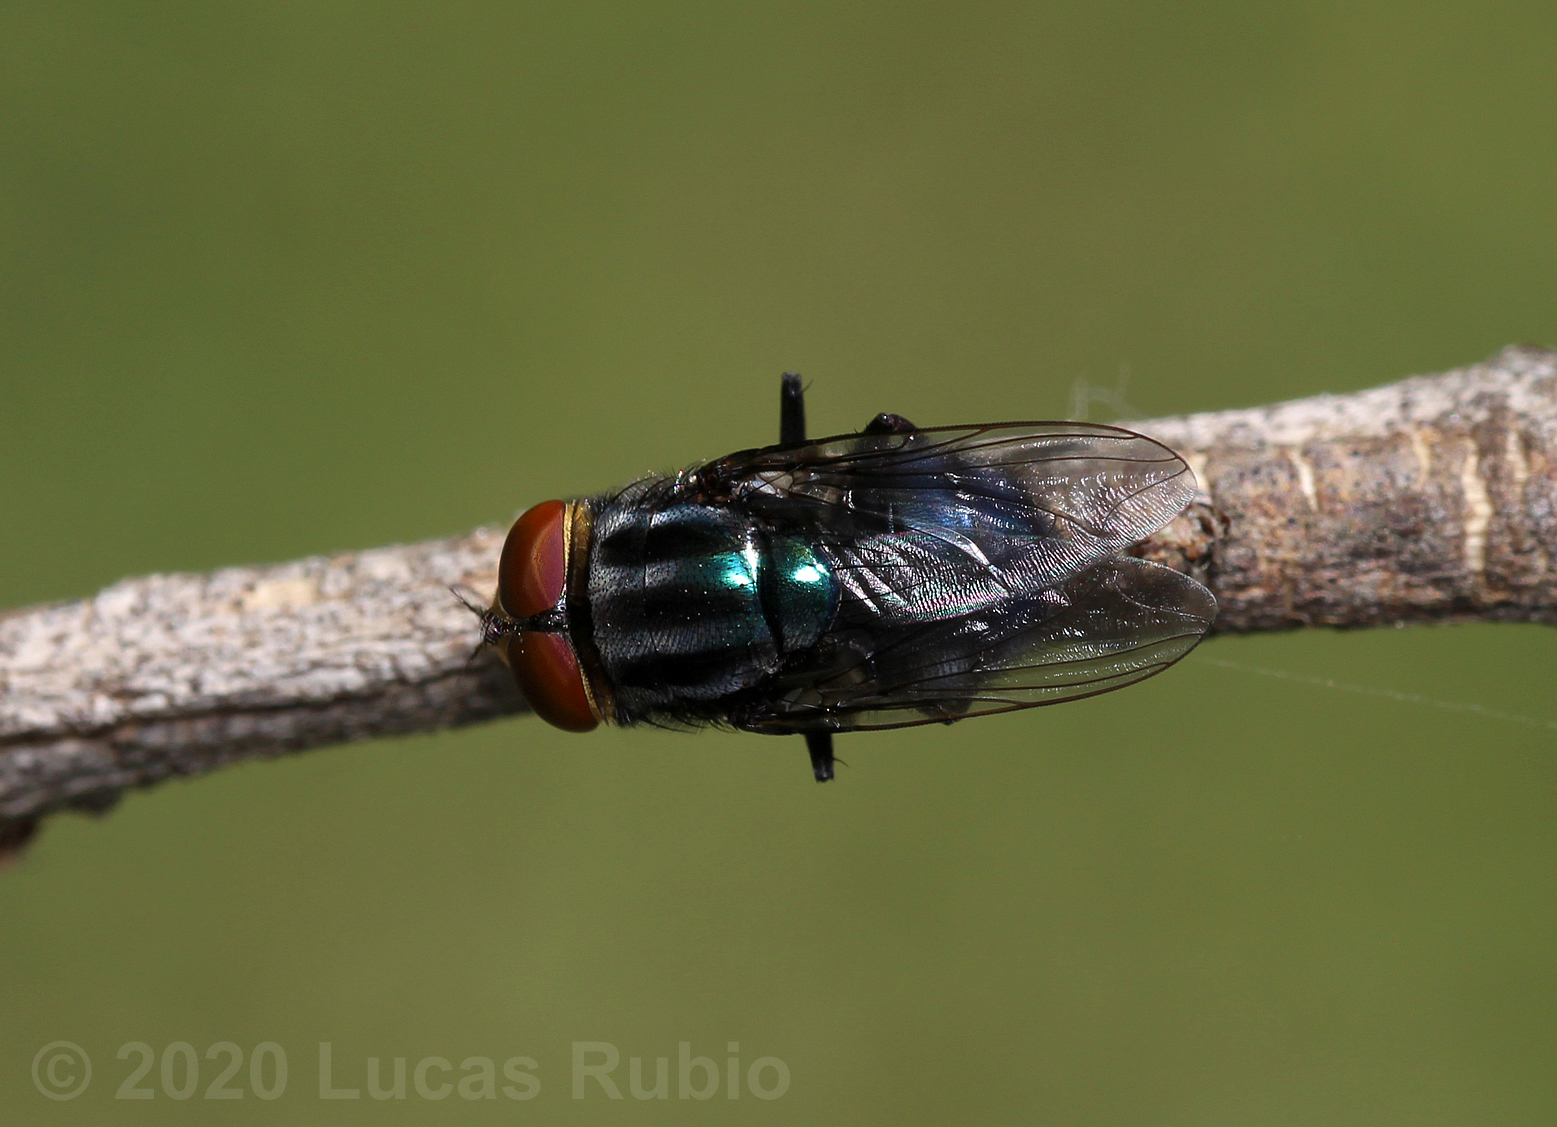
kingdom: Animalia
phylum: Arthropoda
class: Insecta
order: Diptera
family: Calliphoridae
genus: Cochliomyia
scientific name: Cochliomyia macellaria
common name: Secondary screwworm
